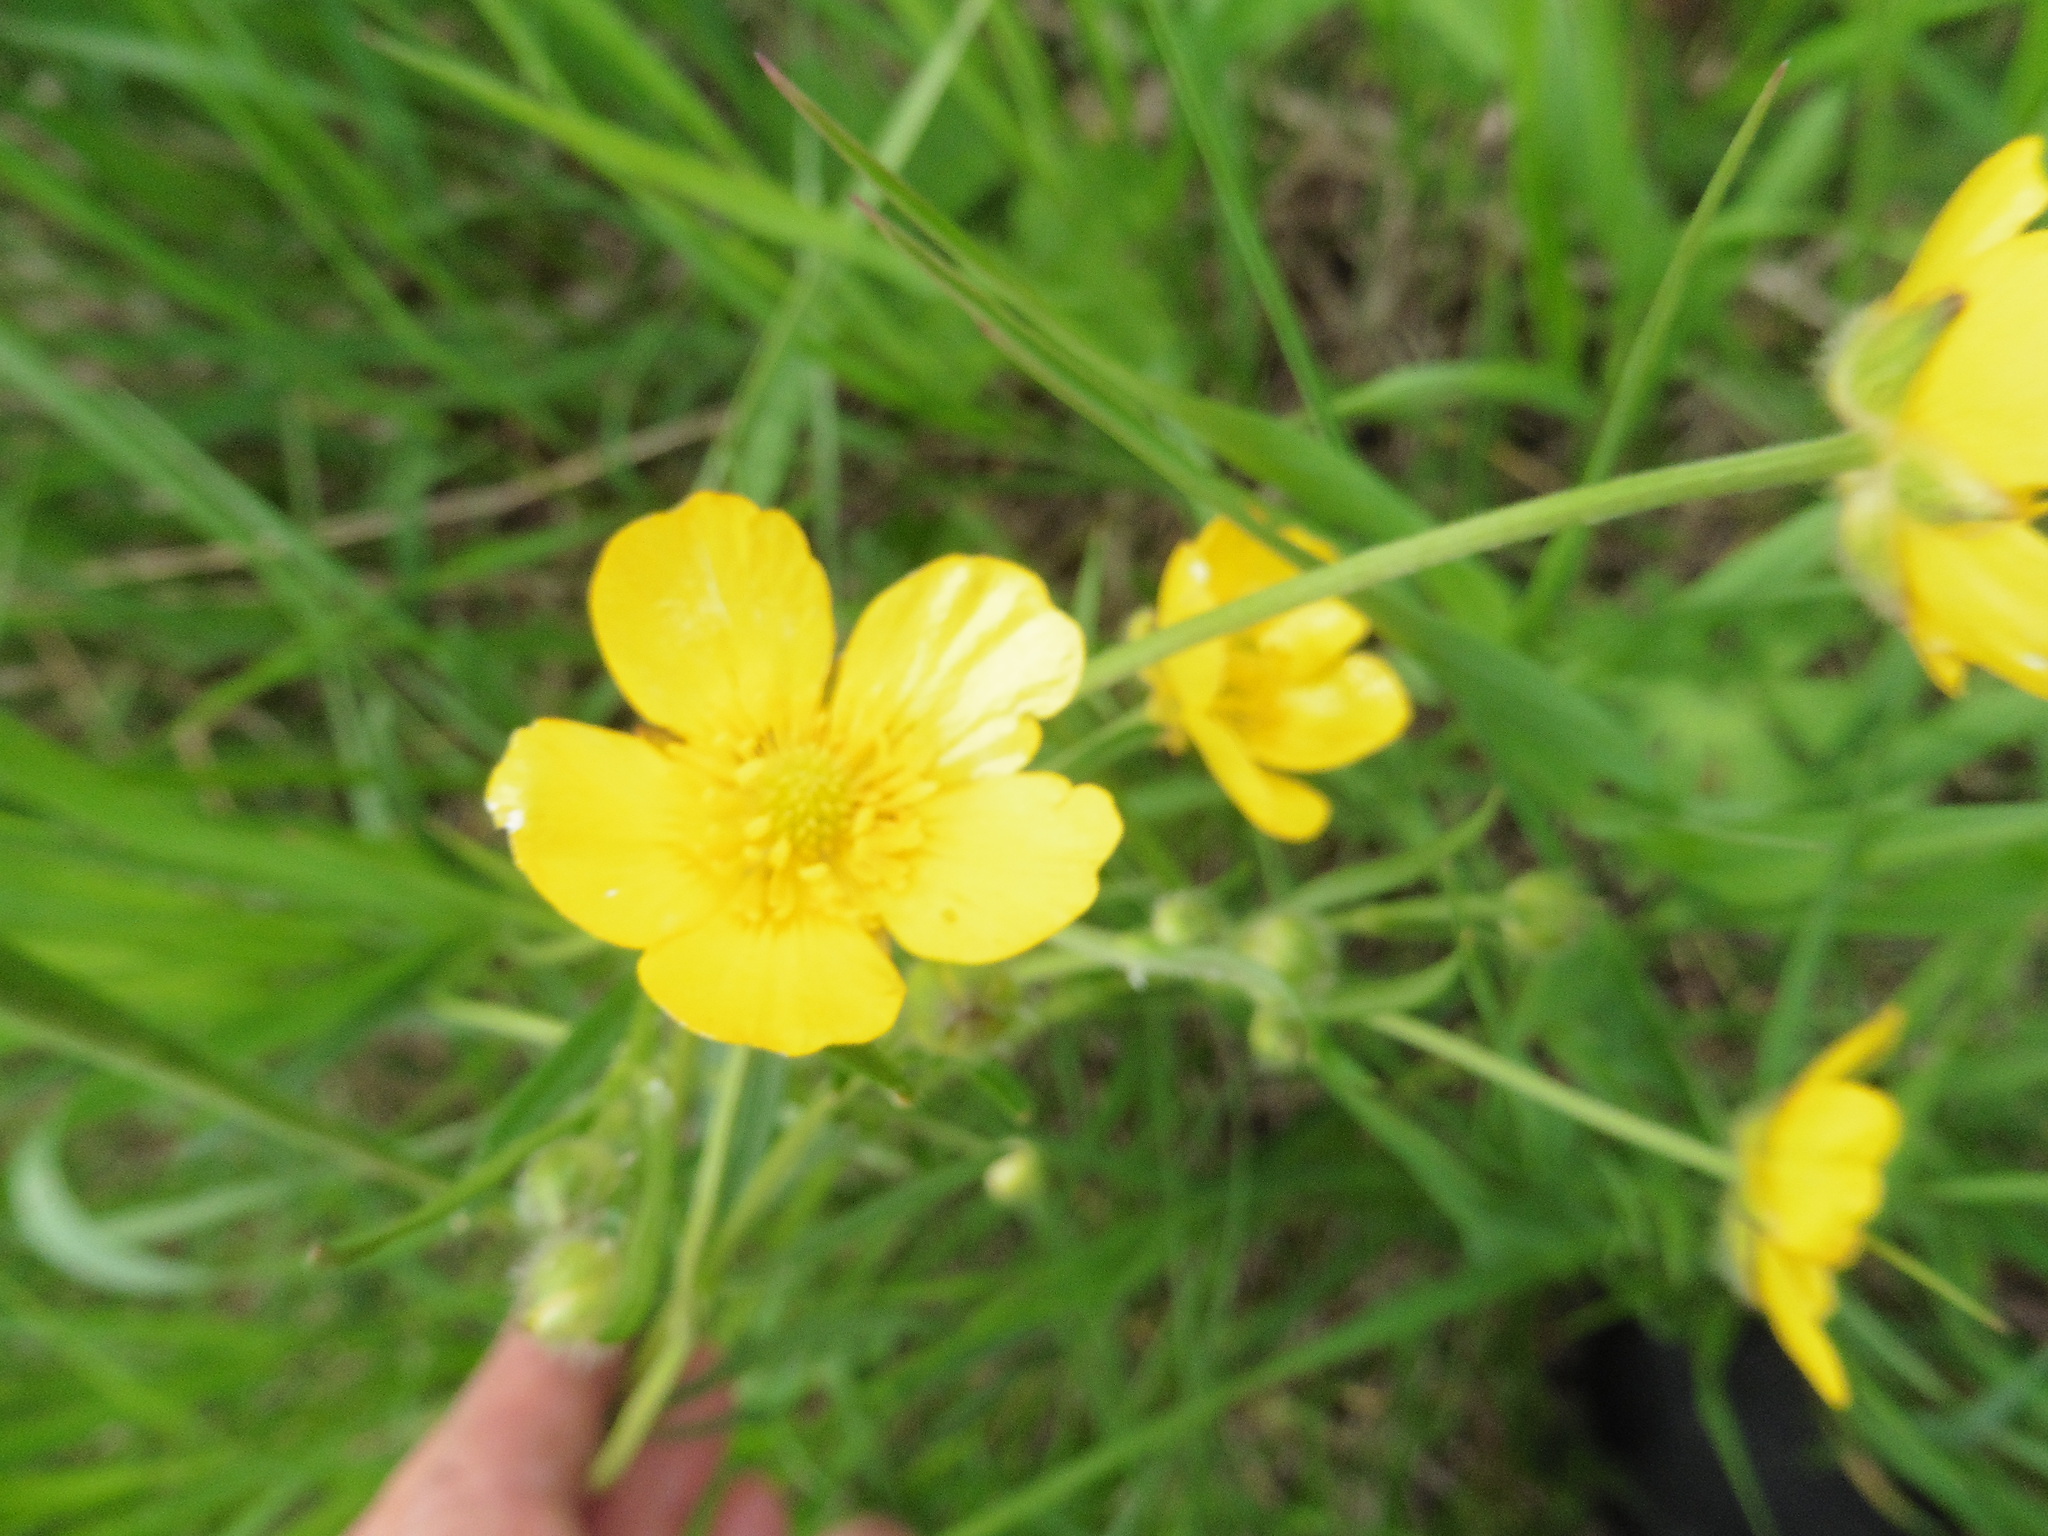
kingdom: Plantae
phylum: Tracheophyta
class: Magnoliopsida
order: Ranunculales
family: Ranunculaceae
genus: Ranunculus
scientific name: Ranunculus polyanthemos
